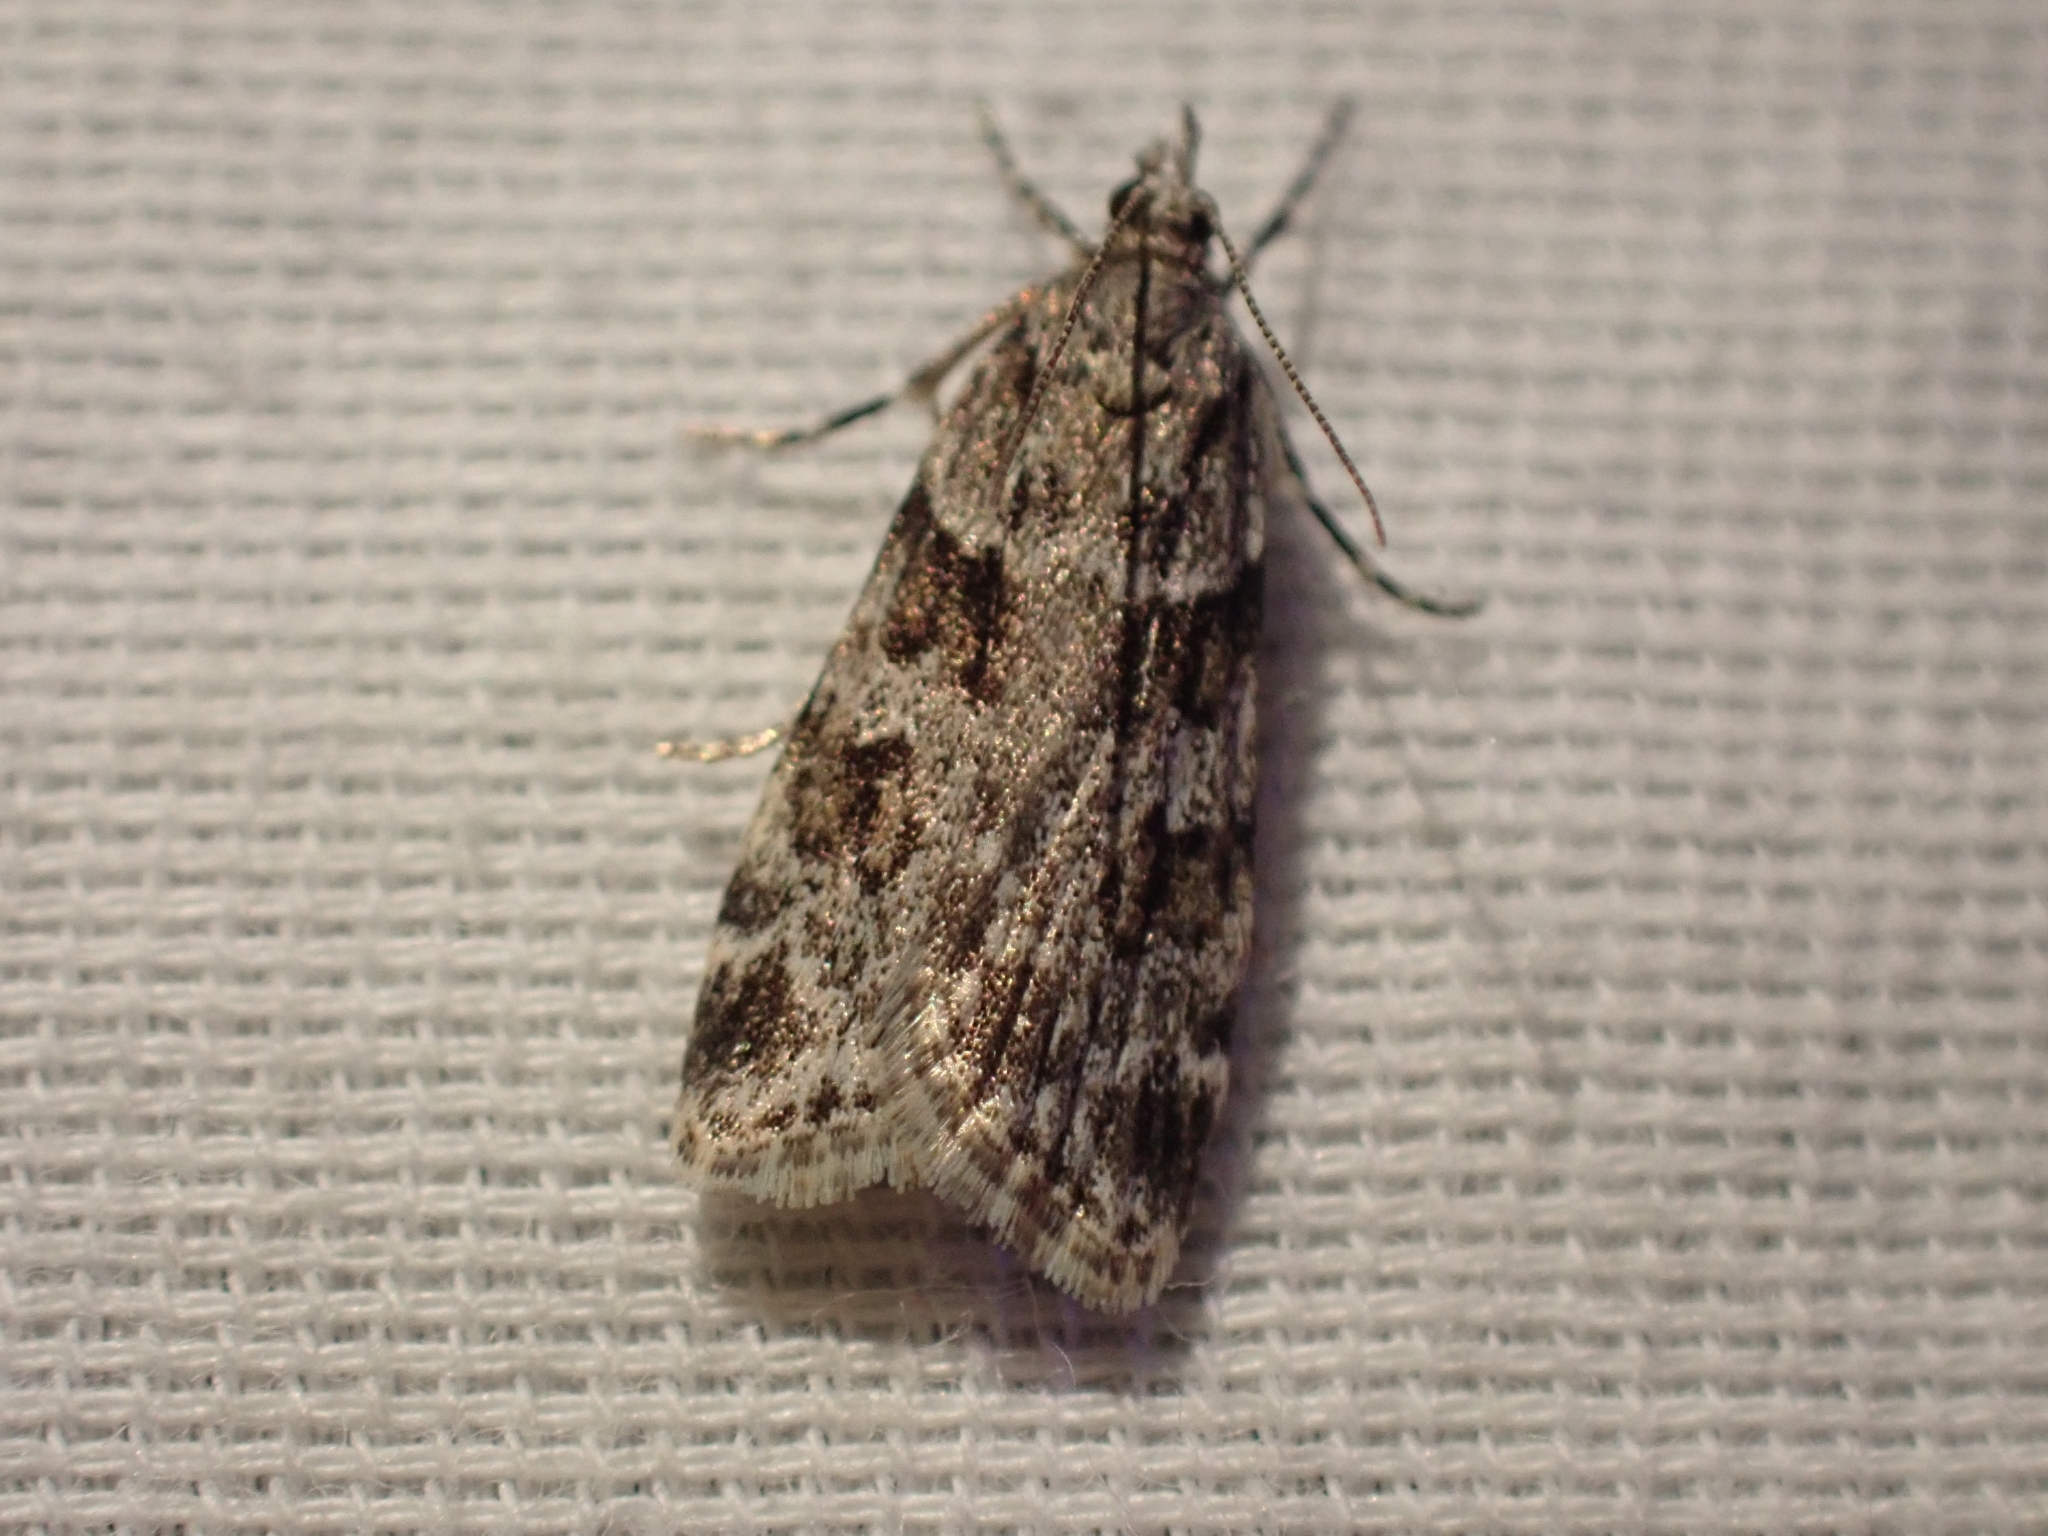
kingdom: Animalia
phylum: Arthropoda
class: Insecta
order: Lepidoptera
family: Crambidae
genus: Scoparia
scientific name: Scoparia biplagialis
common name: Double-striped scoparia moth
